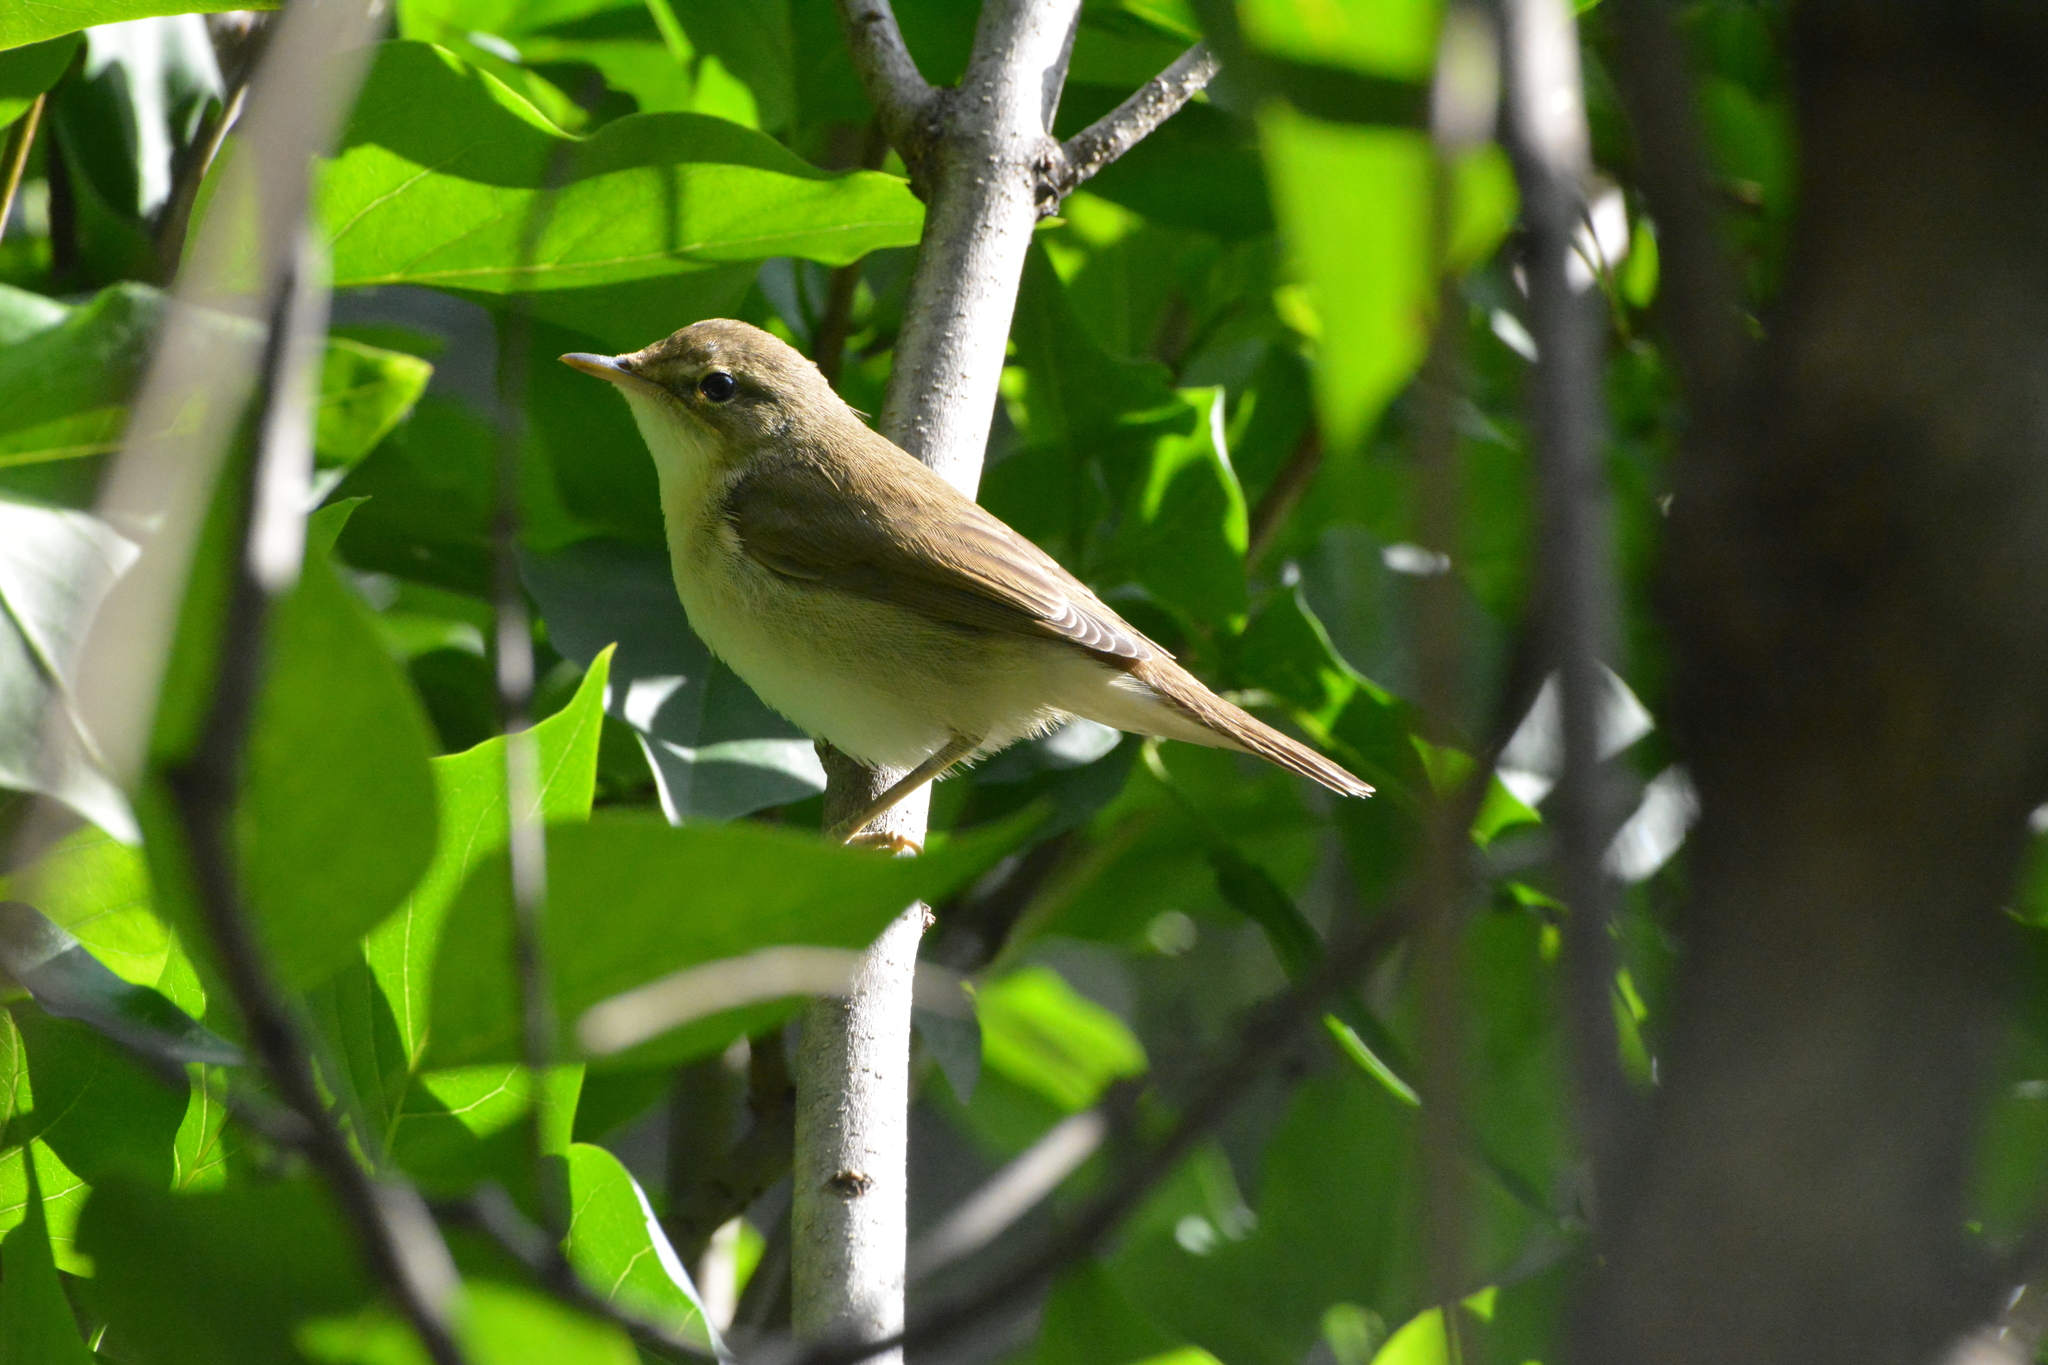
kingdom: Animalia
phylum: Chordata
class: Aves
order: Passeriformes
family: Acrocephalidae
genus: Acrocephalus
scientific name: Acrocephalus palustris
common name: Marsh warbler
